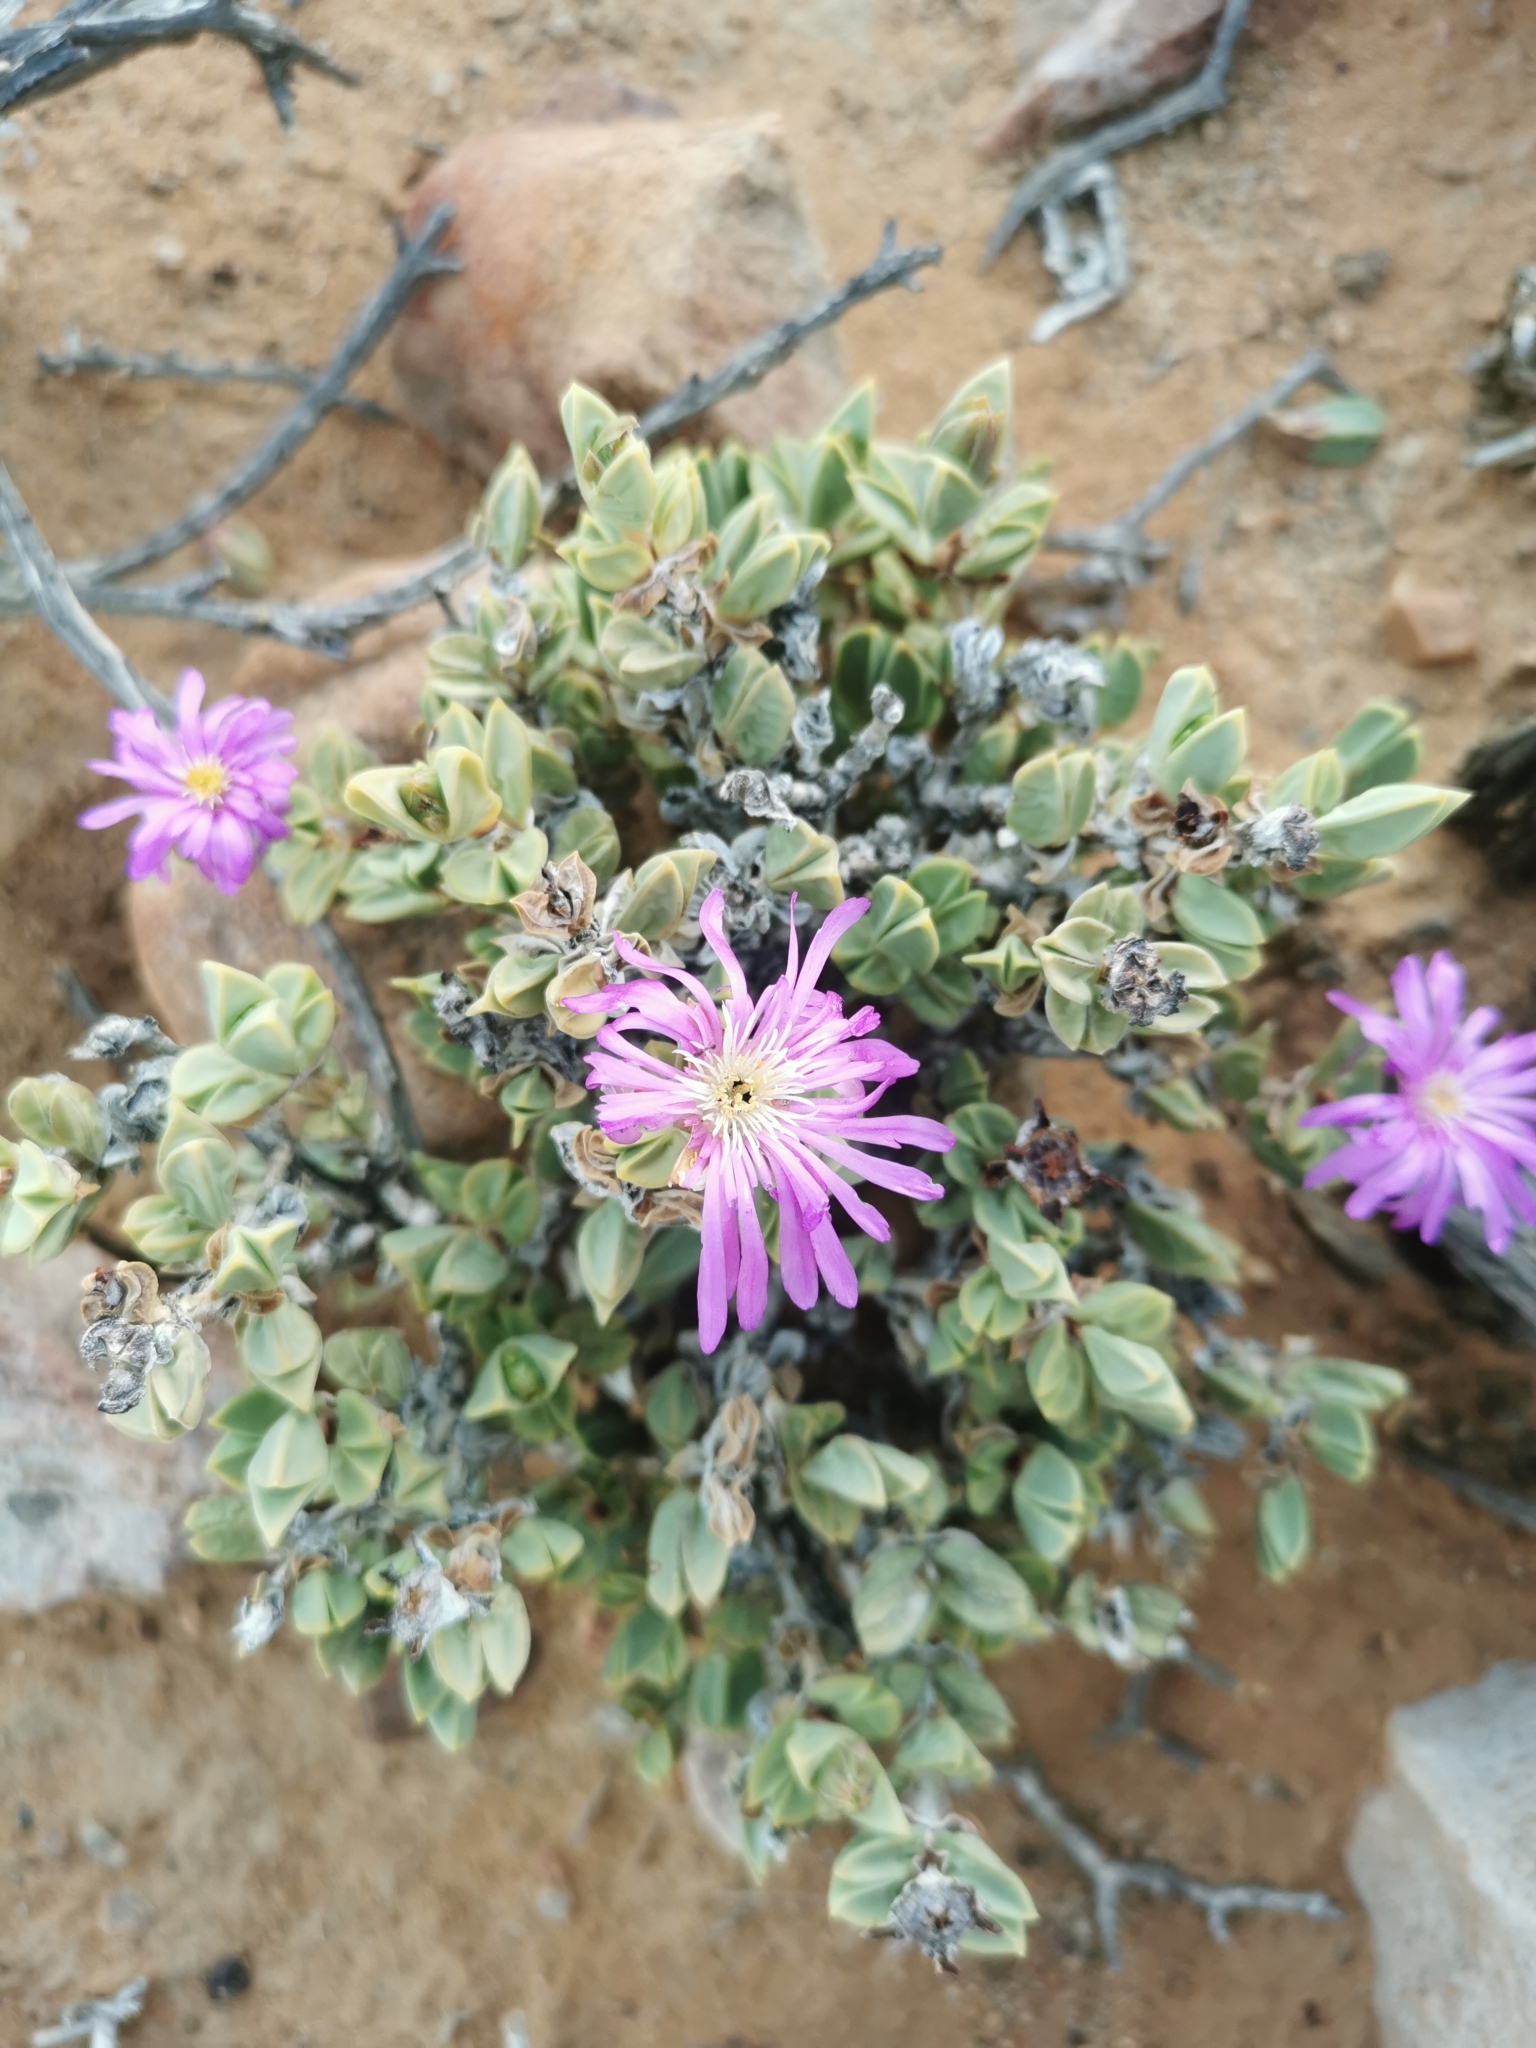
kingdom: Plantae
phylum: Tracheophyta
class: Magnoliopsida
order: Caryophyllales
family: Aizoaceae
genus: Braunsia
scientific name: Braunsia apiculata
